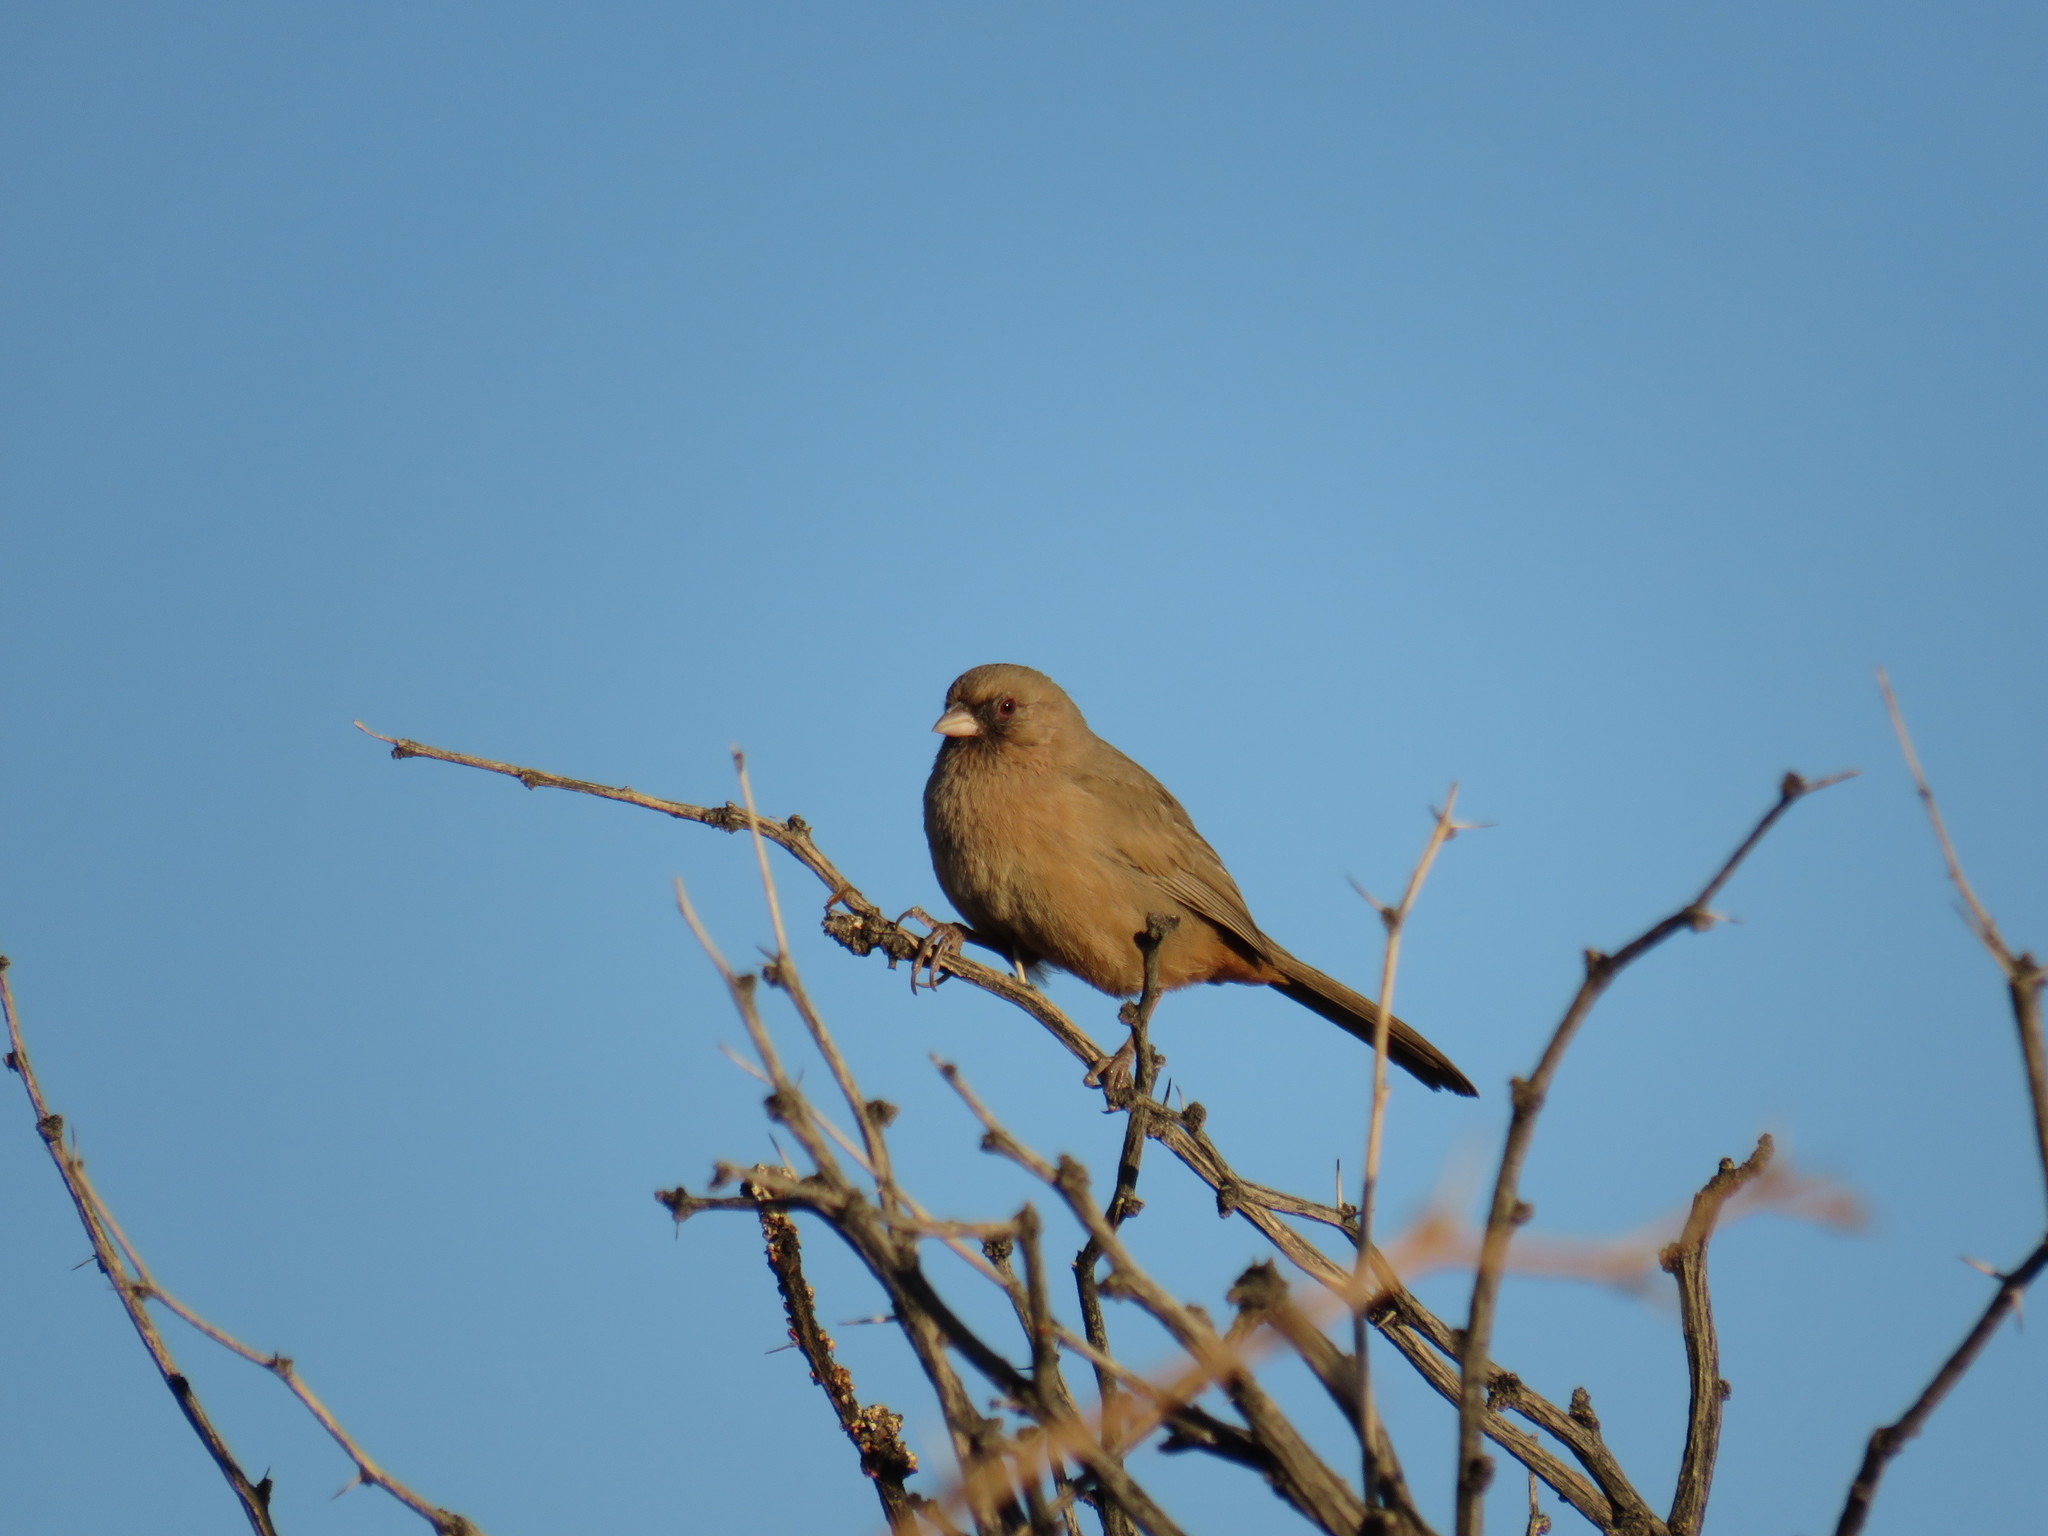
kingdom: Animalia
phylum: Chordata
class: Aves
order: Passeriformes
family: Passerellidae
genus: Melozone
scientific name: Melozone aberti
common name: Abert's towhee
